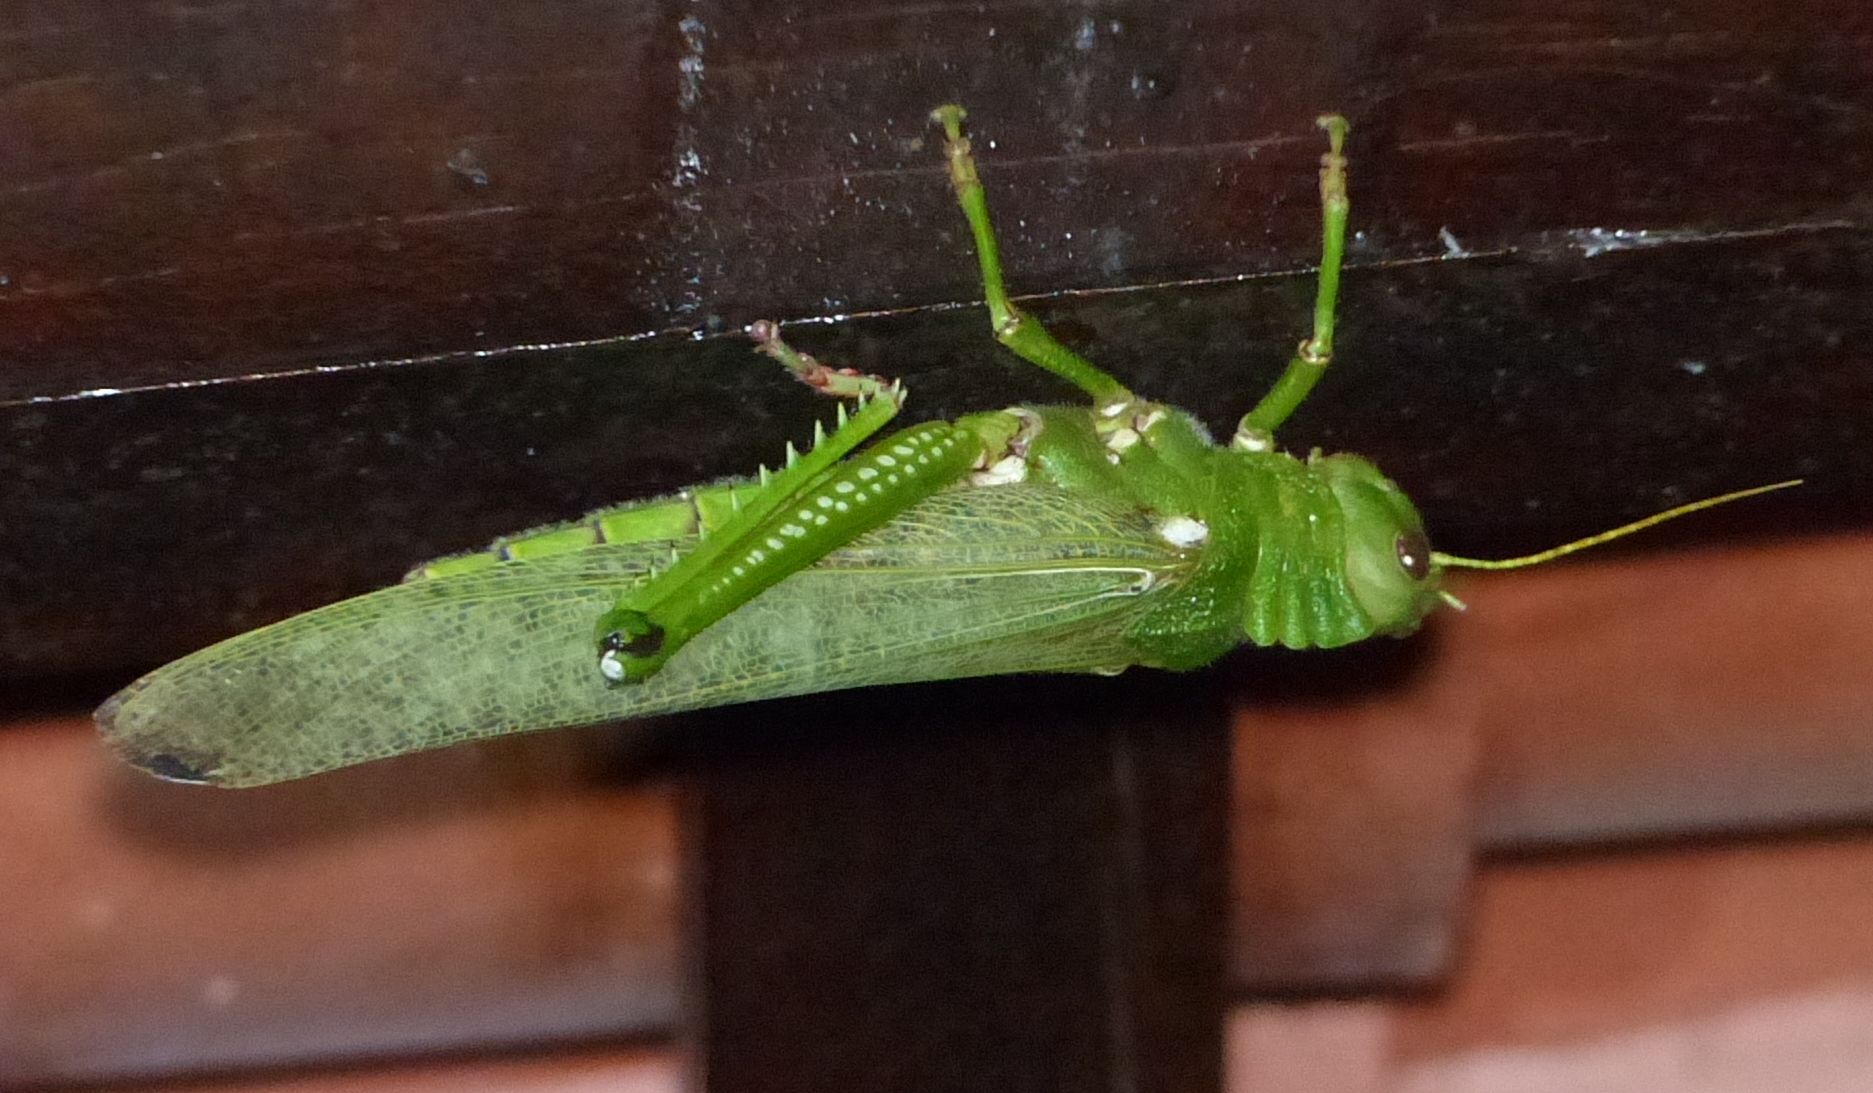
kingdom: Animalia
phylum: Arthropoda
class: Insecta
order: Orthoptera
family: Romaleidae
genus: Tropidacris
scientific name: Tropidacris collaris
